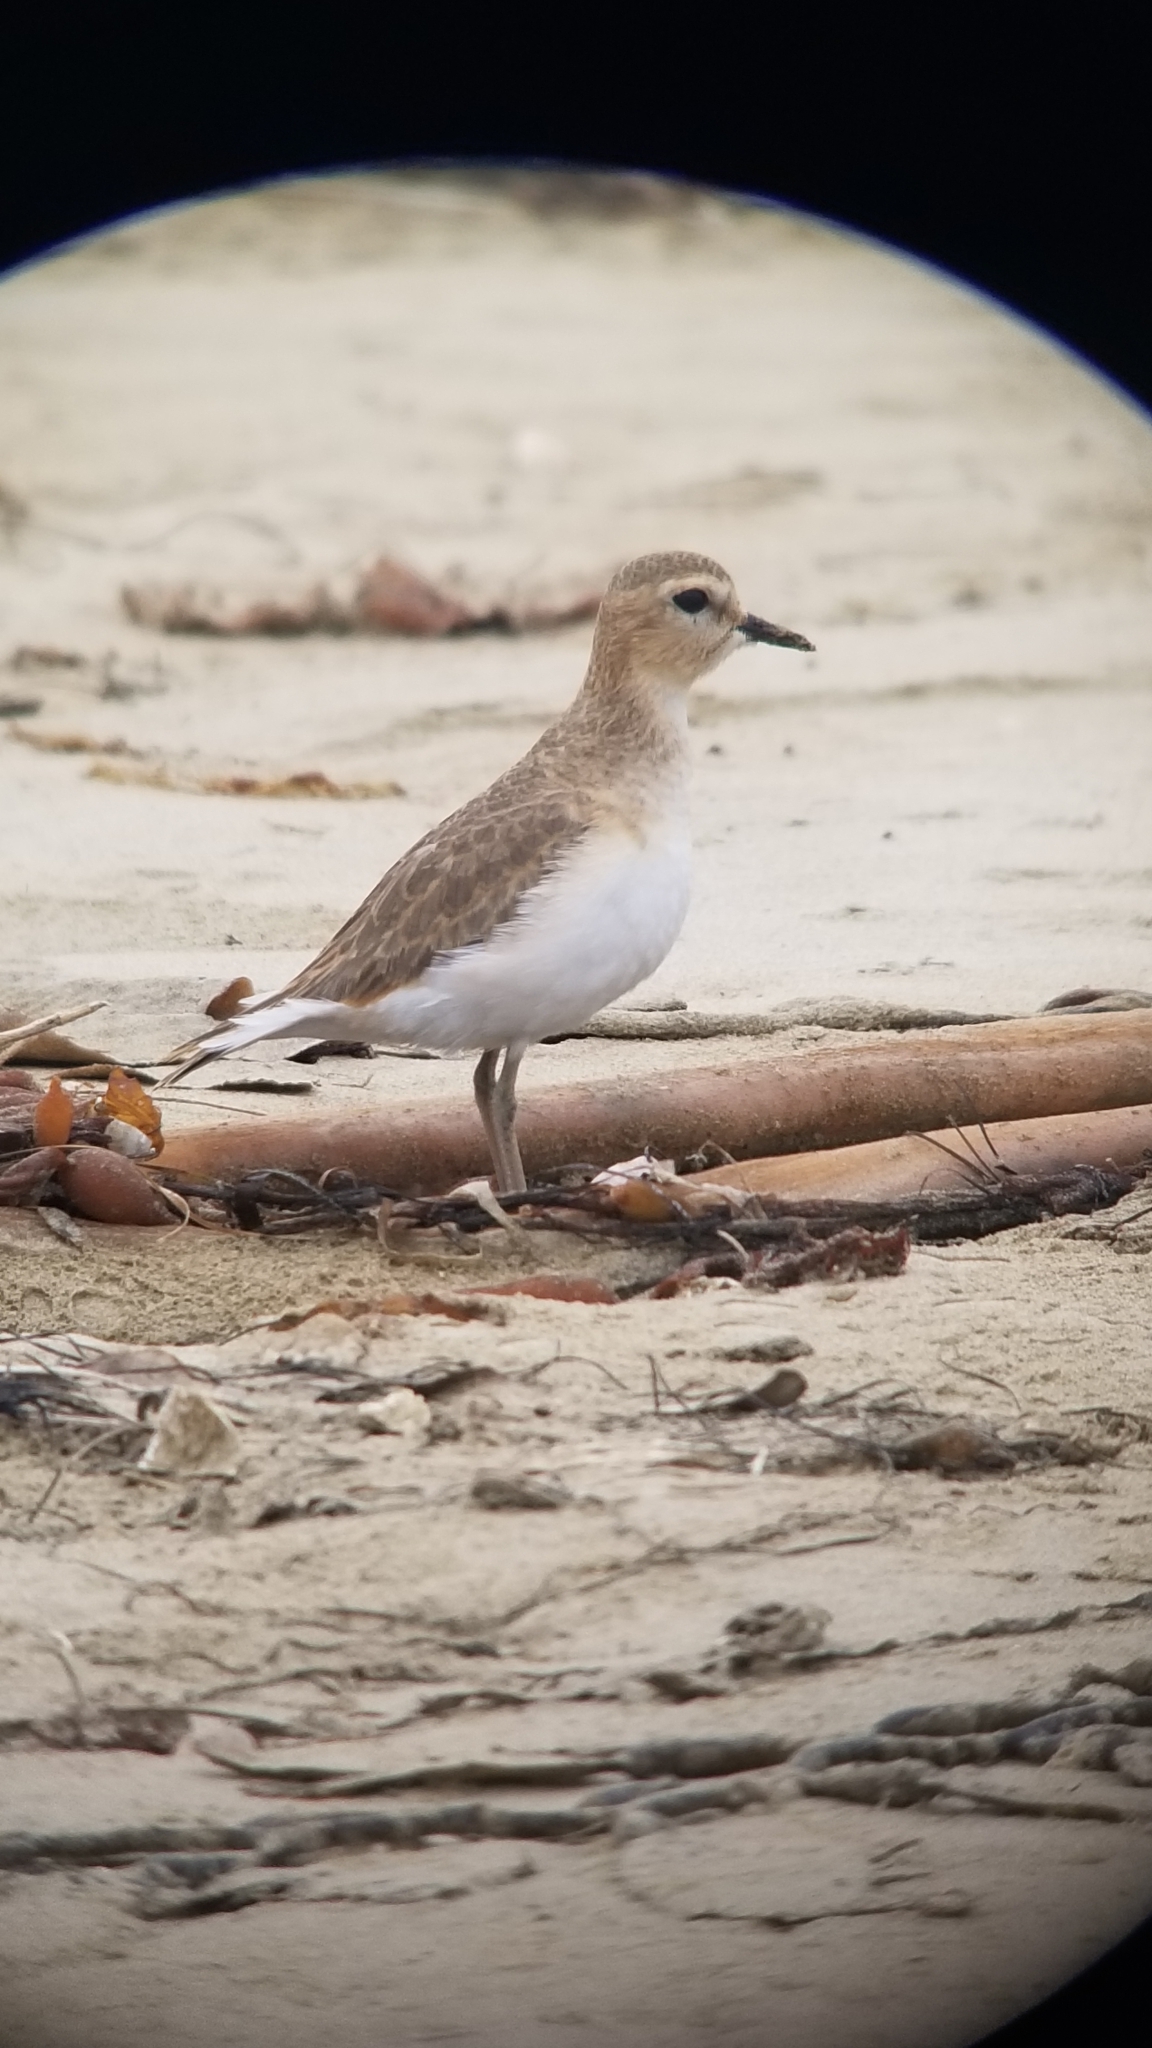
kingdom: Animalia
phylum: Chordata
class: Aves
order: Charadriiformes
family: Charadriidae
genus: Anarhynchus
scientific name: Anarhynchus
